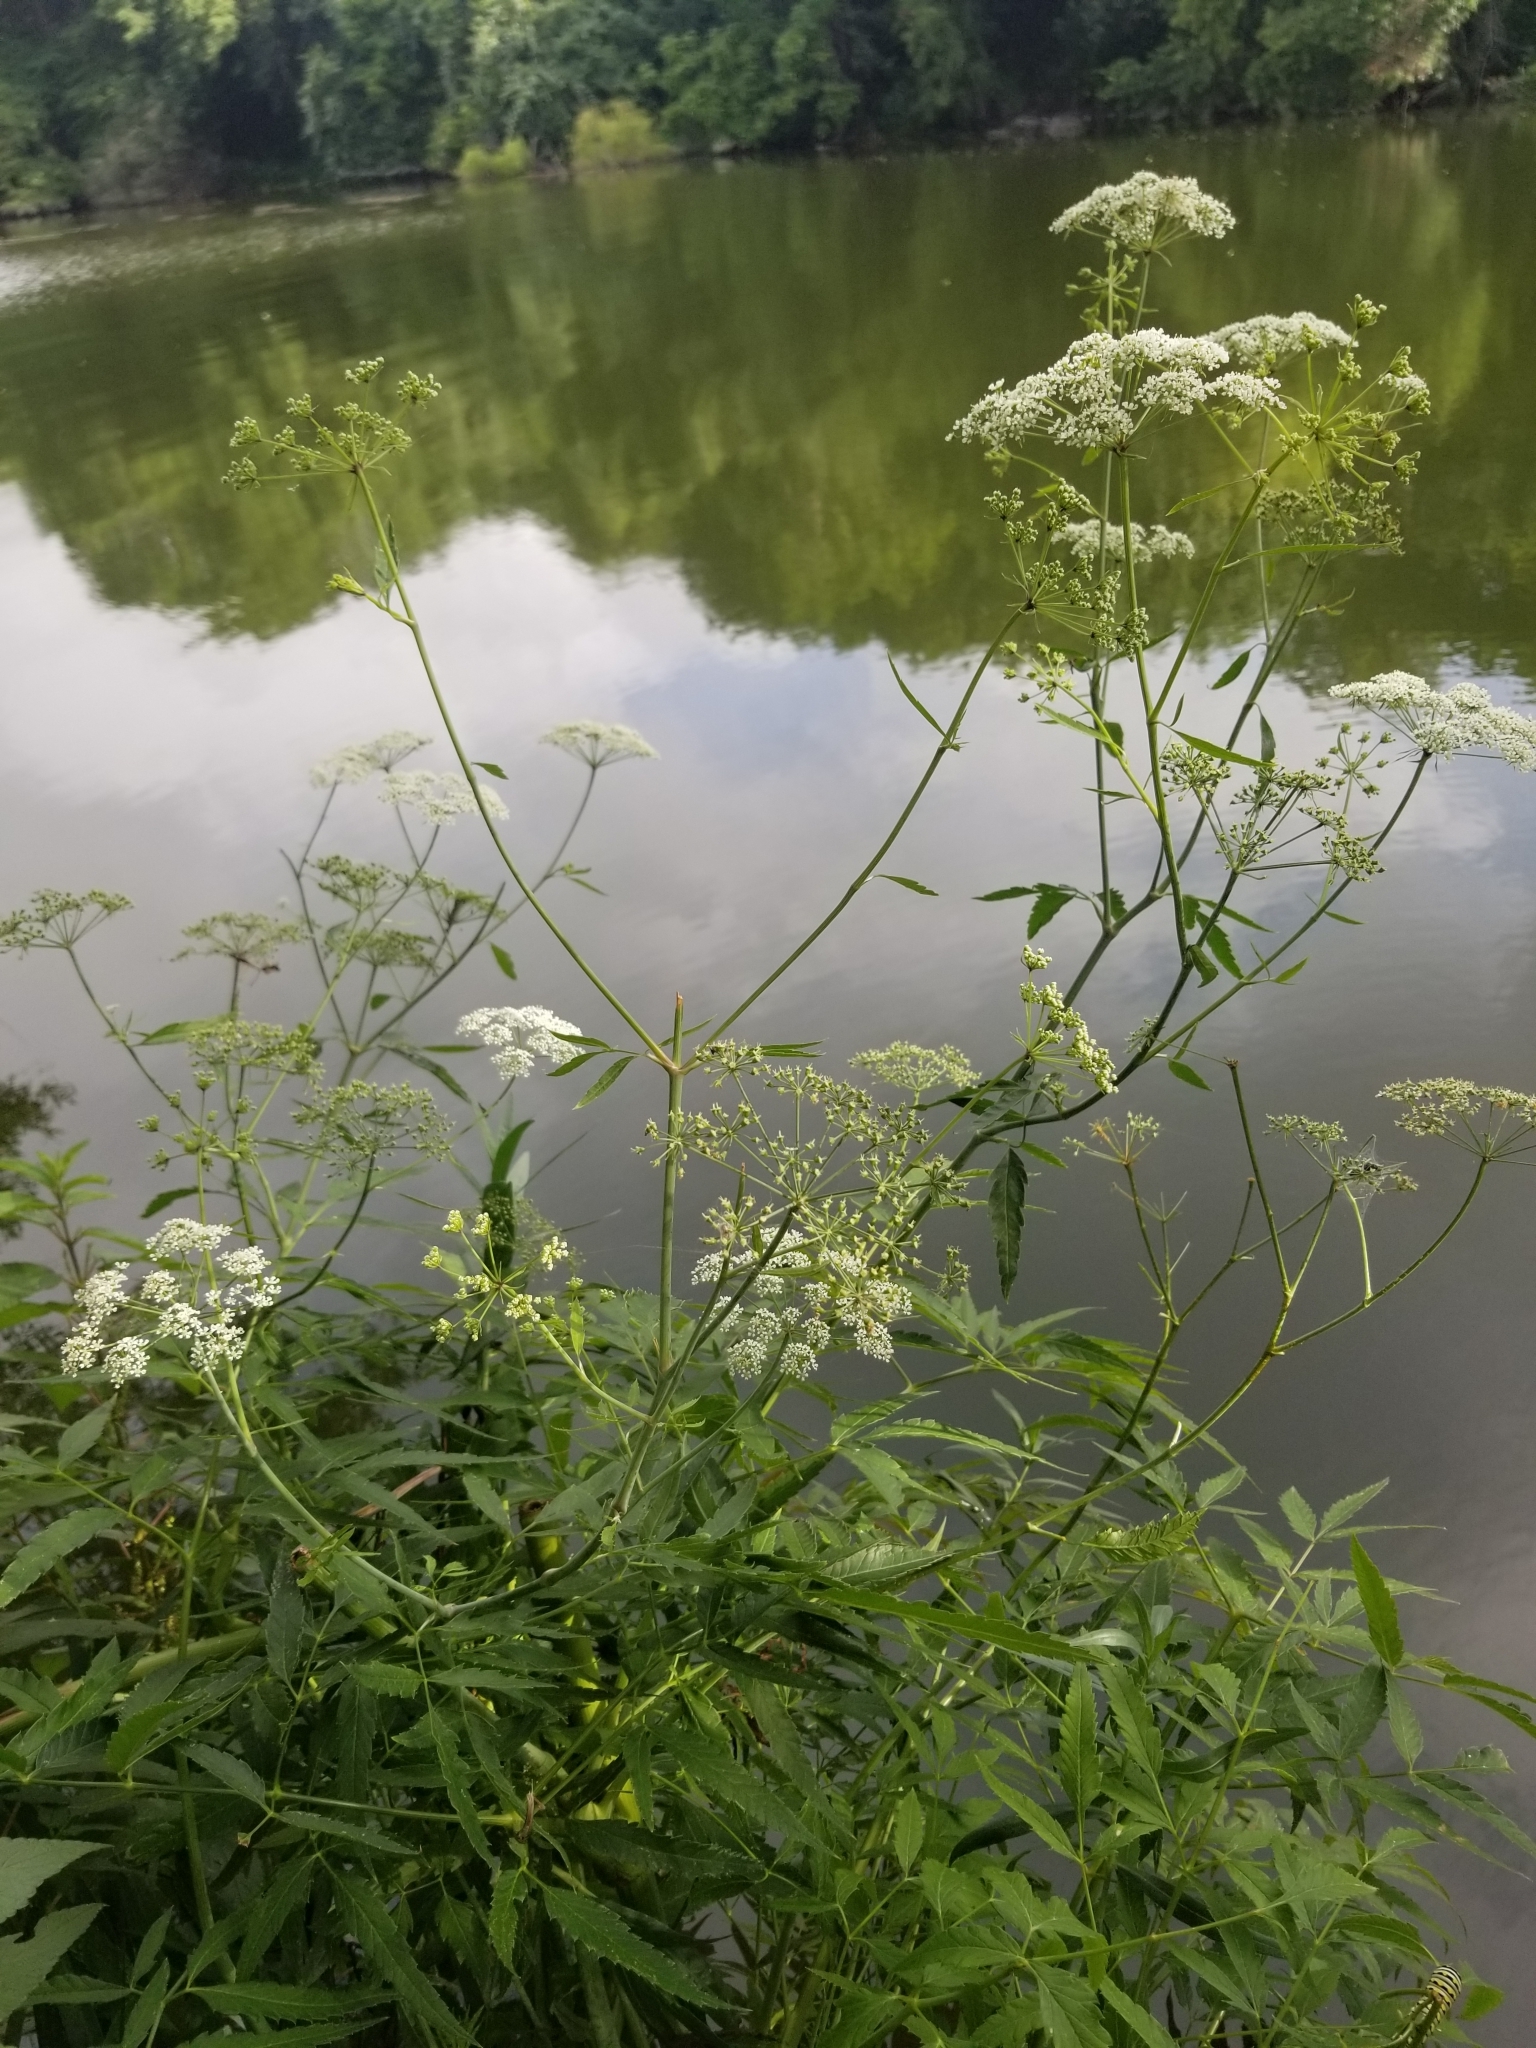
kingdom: Plantae
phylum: Tracheophyta
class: Magnoliopsida
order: Apiales
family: Apiaceae
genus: Cicuta
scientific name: Cicuta maculata
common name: Spotted cowbane
